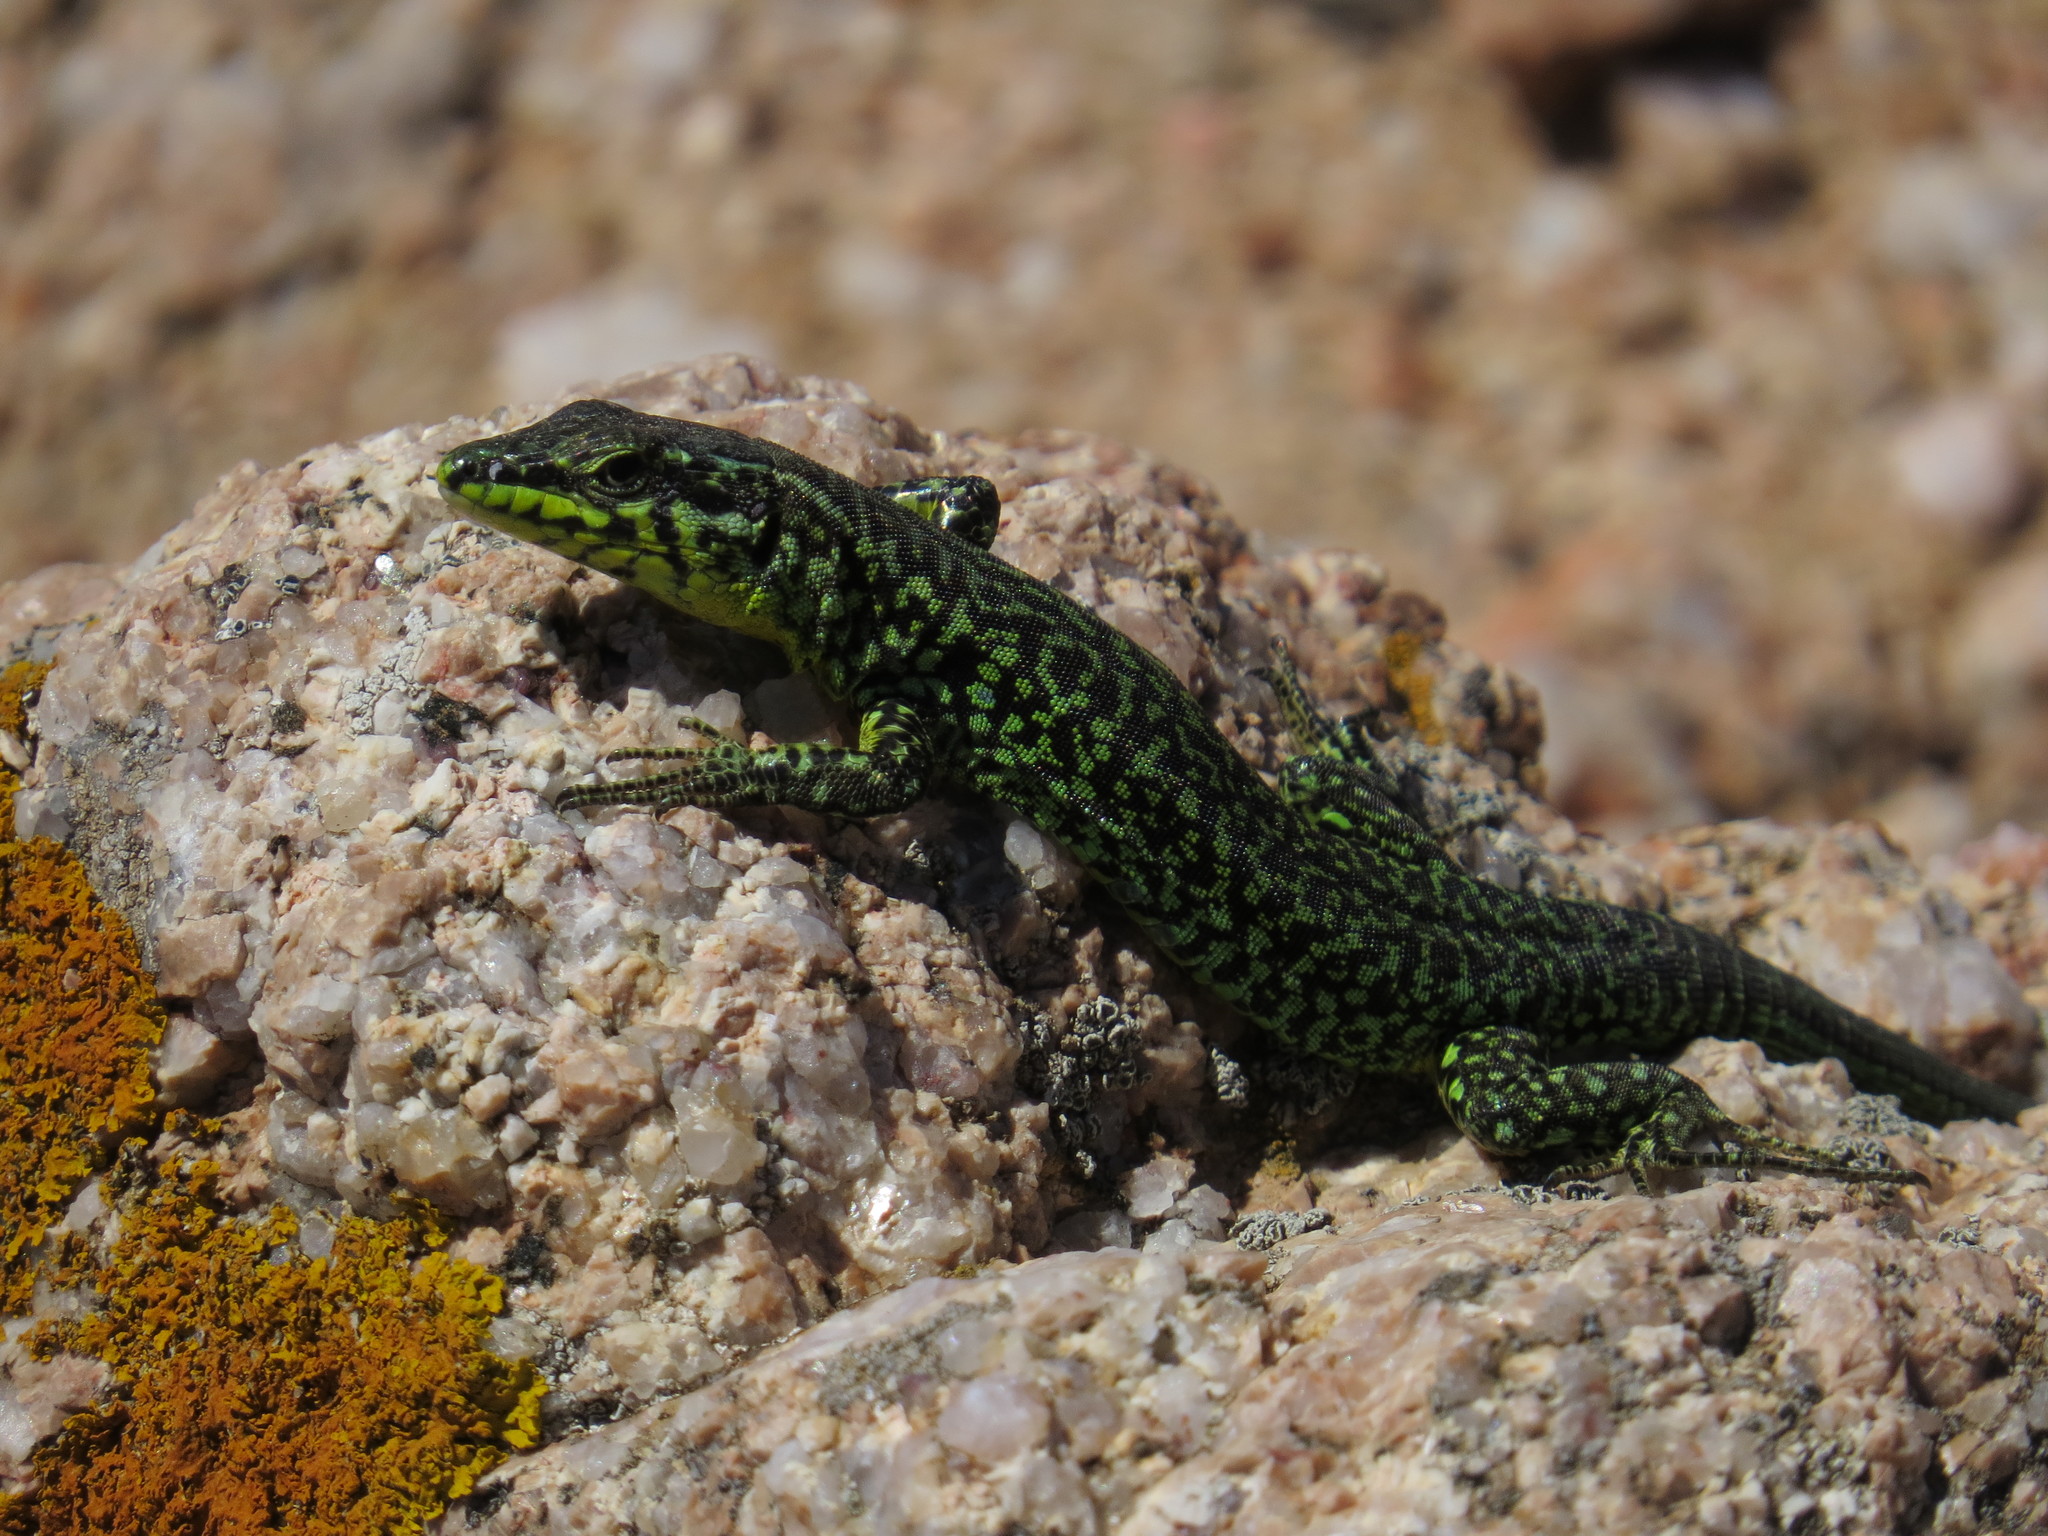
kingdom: Animalia
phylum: Chordata
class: Squamata
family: Lacertidae
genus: Podarcis
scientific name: Podarcis tiliguerta
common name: Tyrrhenian wall lizard
